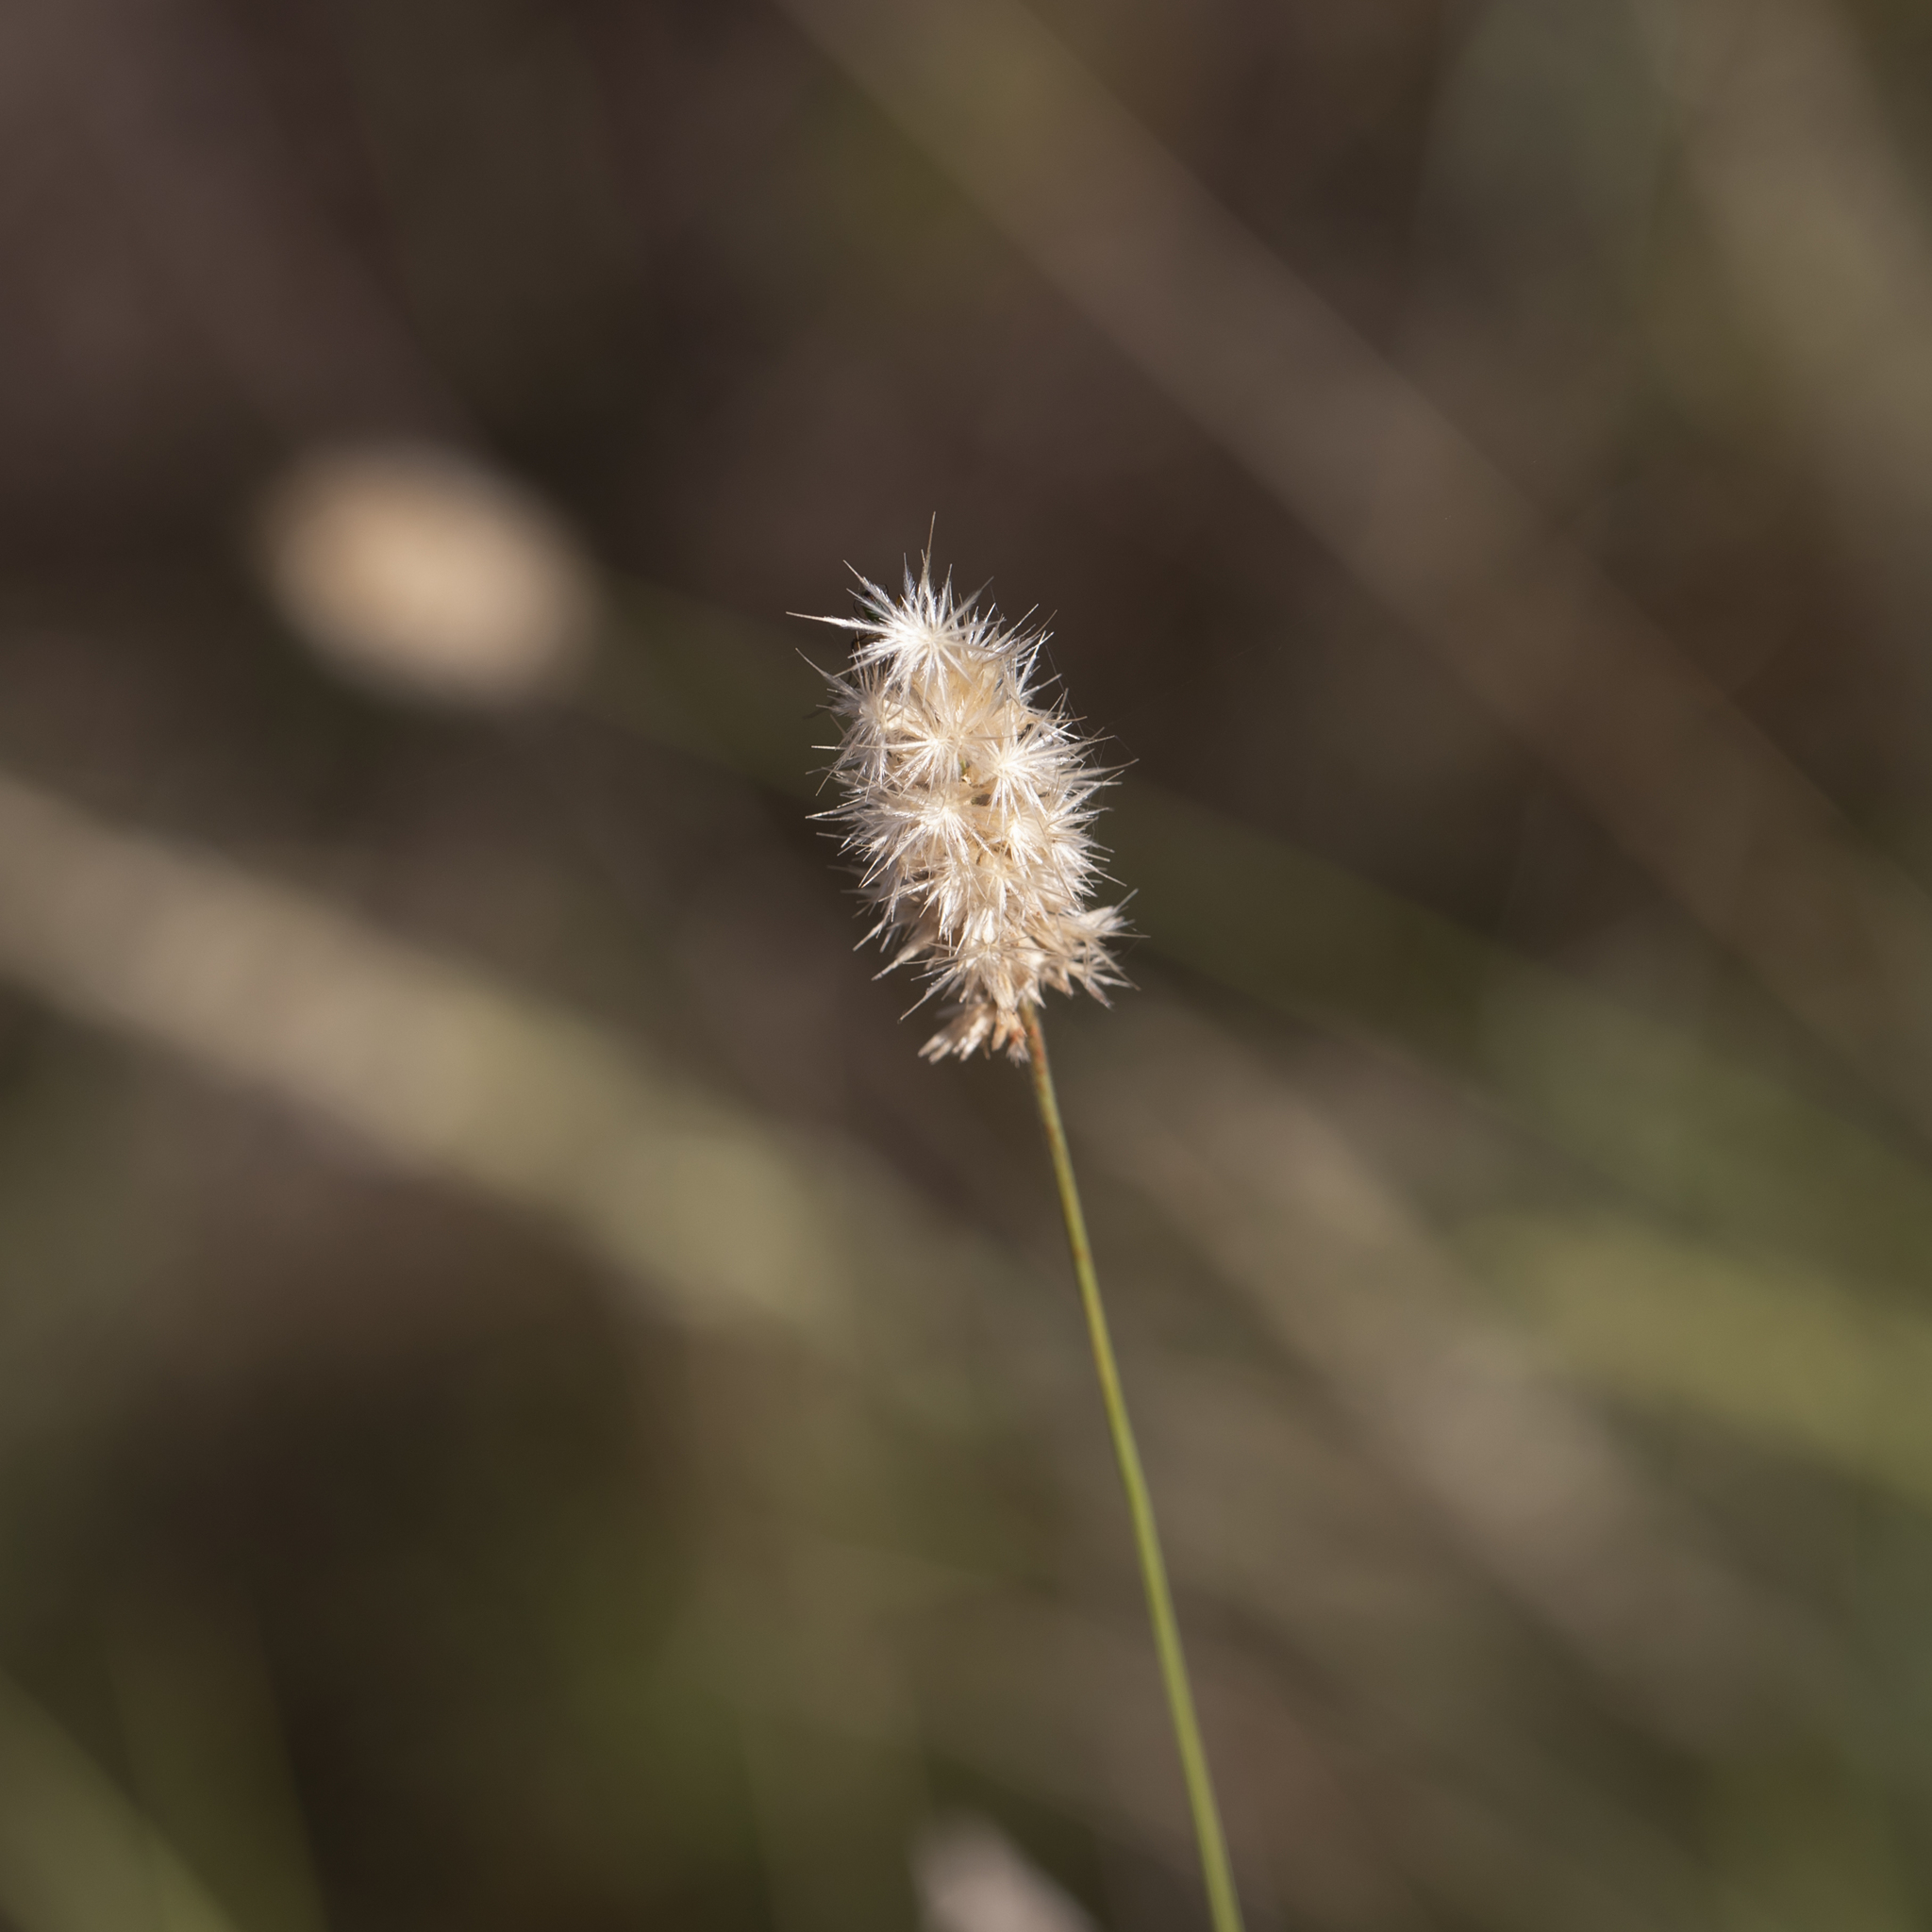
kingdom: Plantae
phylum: Tracheophyta
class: Liliopsida
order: Poales
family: Poaceae
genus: Enneapogon
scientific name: Enneapogon robustissimus
